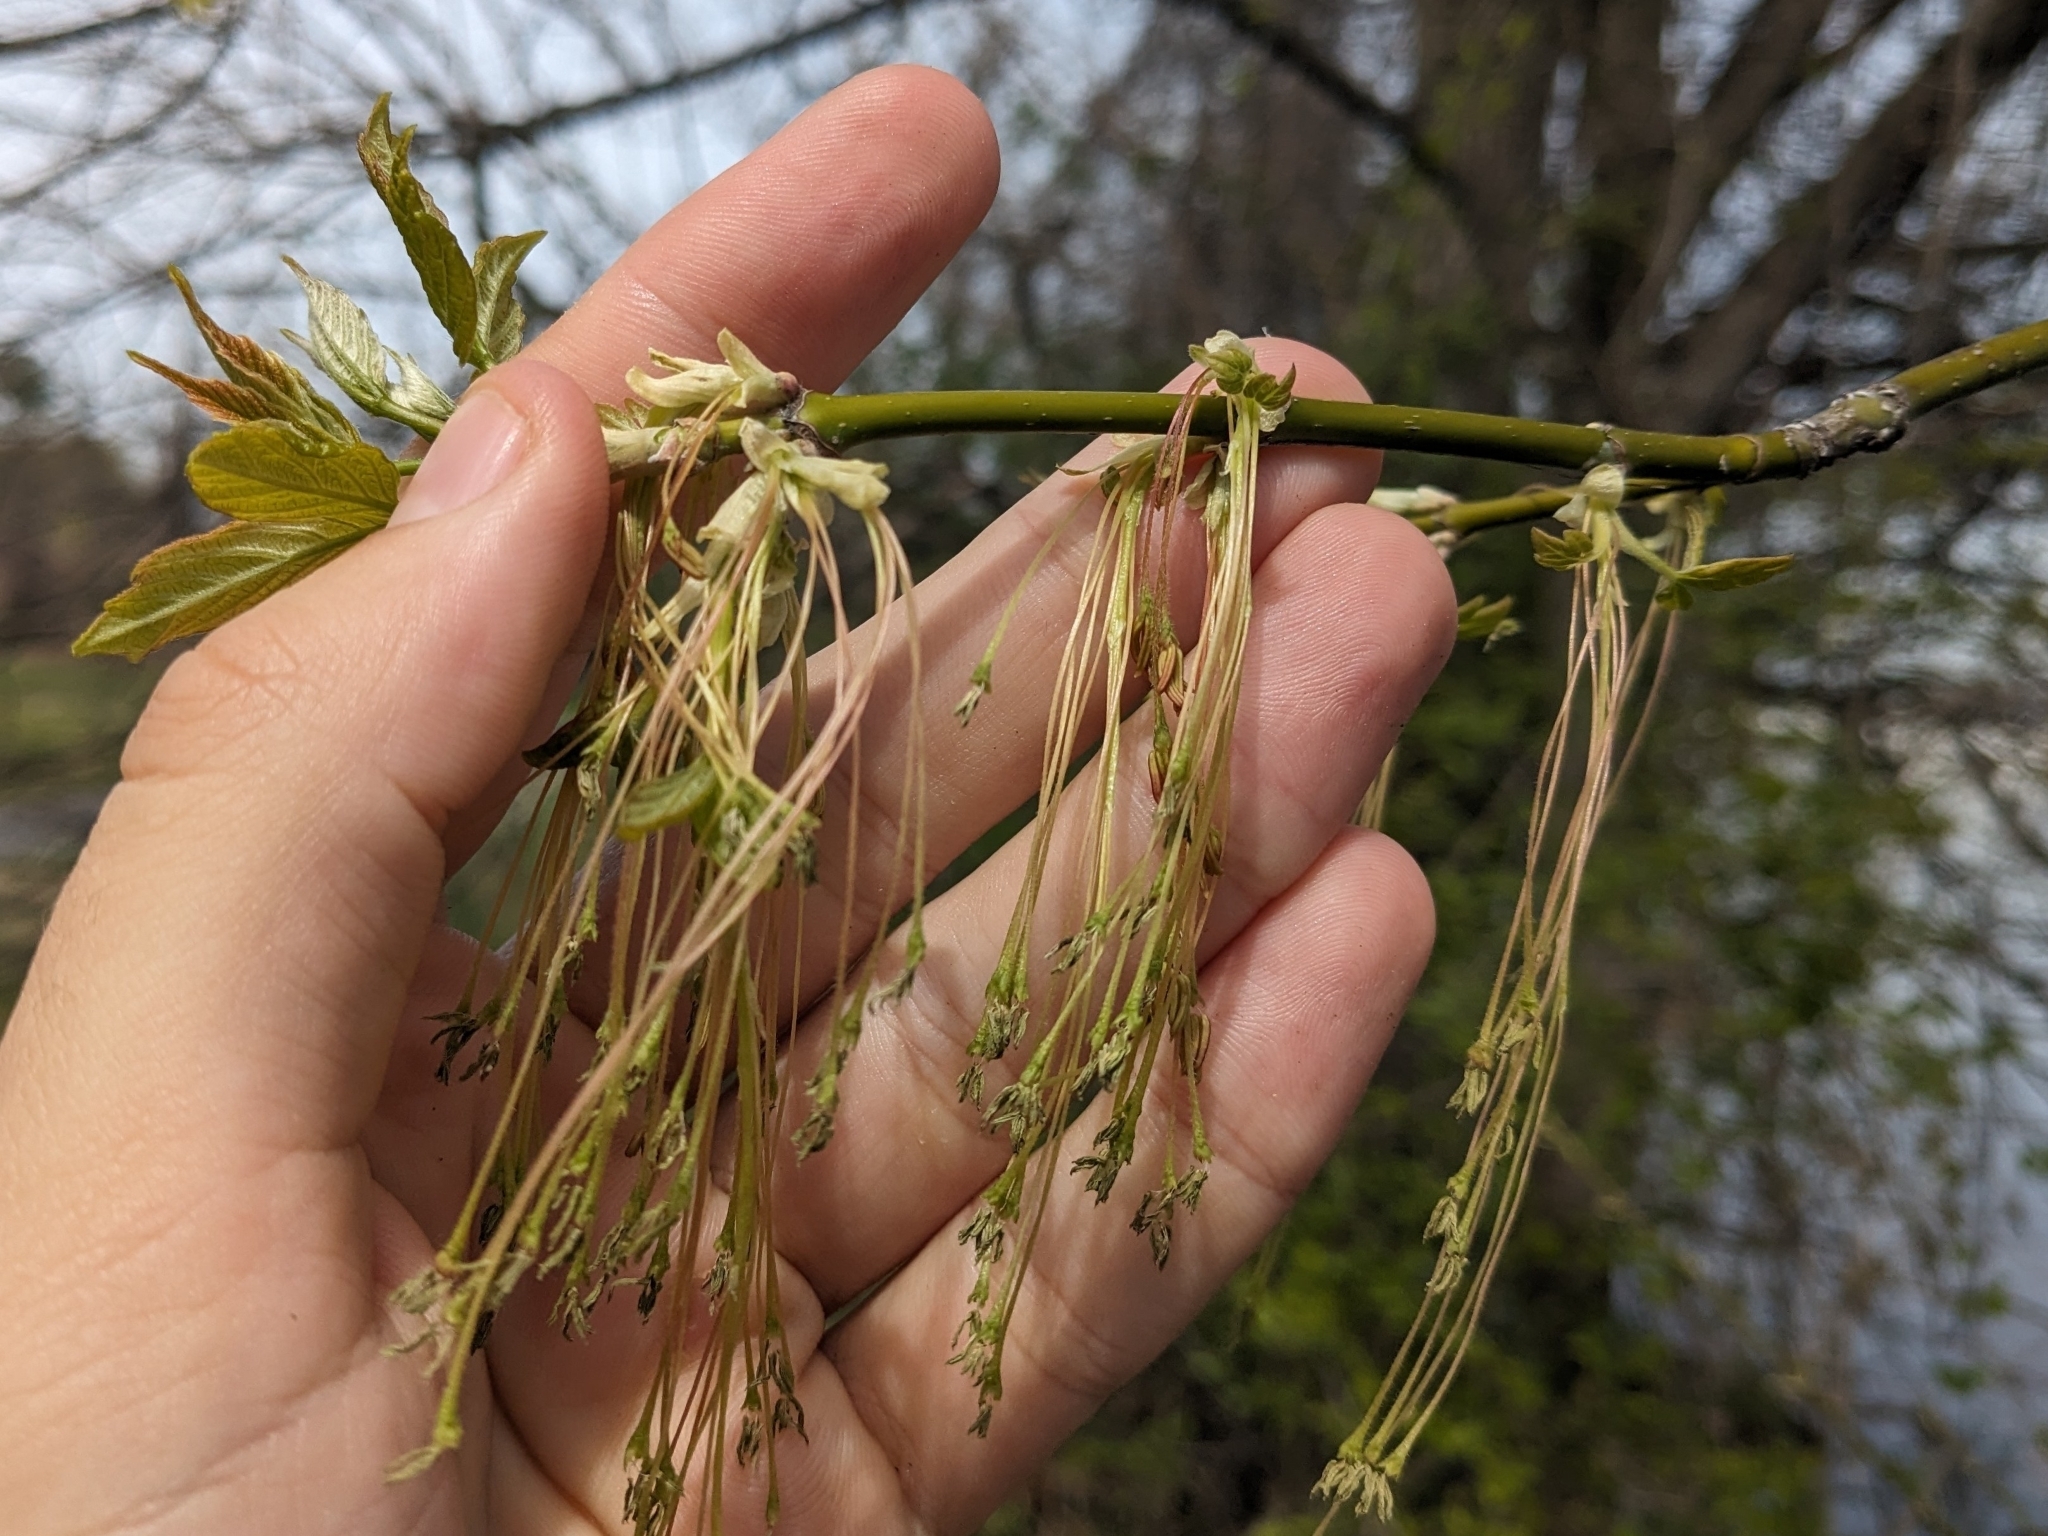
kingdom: Plantae
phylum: Tracheophyta
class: Magnoliopsida
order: Sapindales
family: Sapindaceae
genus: Acer
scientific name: Acer negundo
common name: Ashleaf maple
